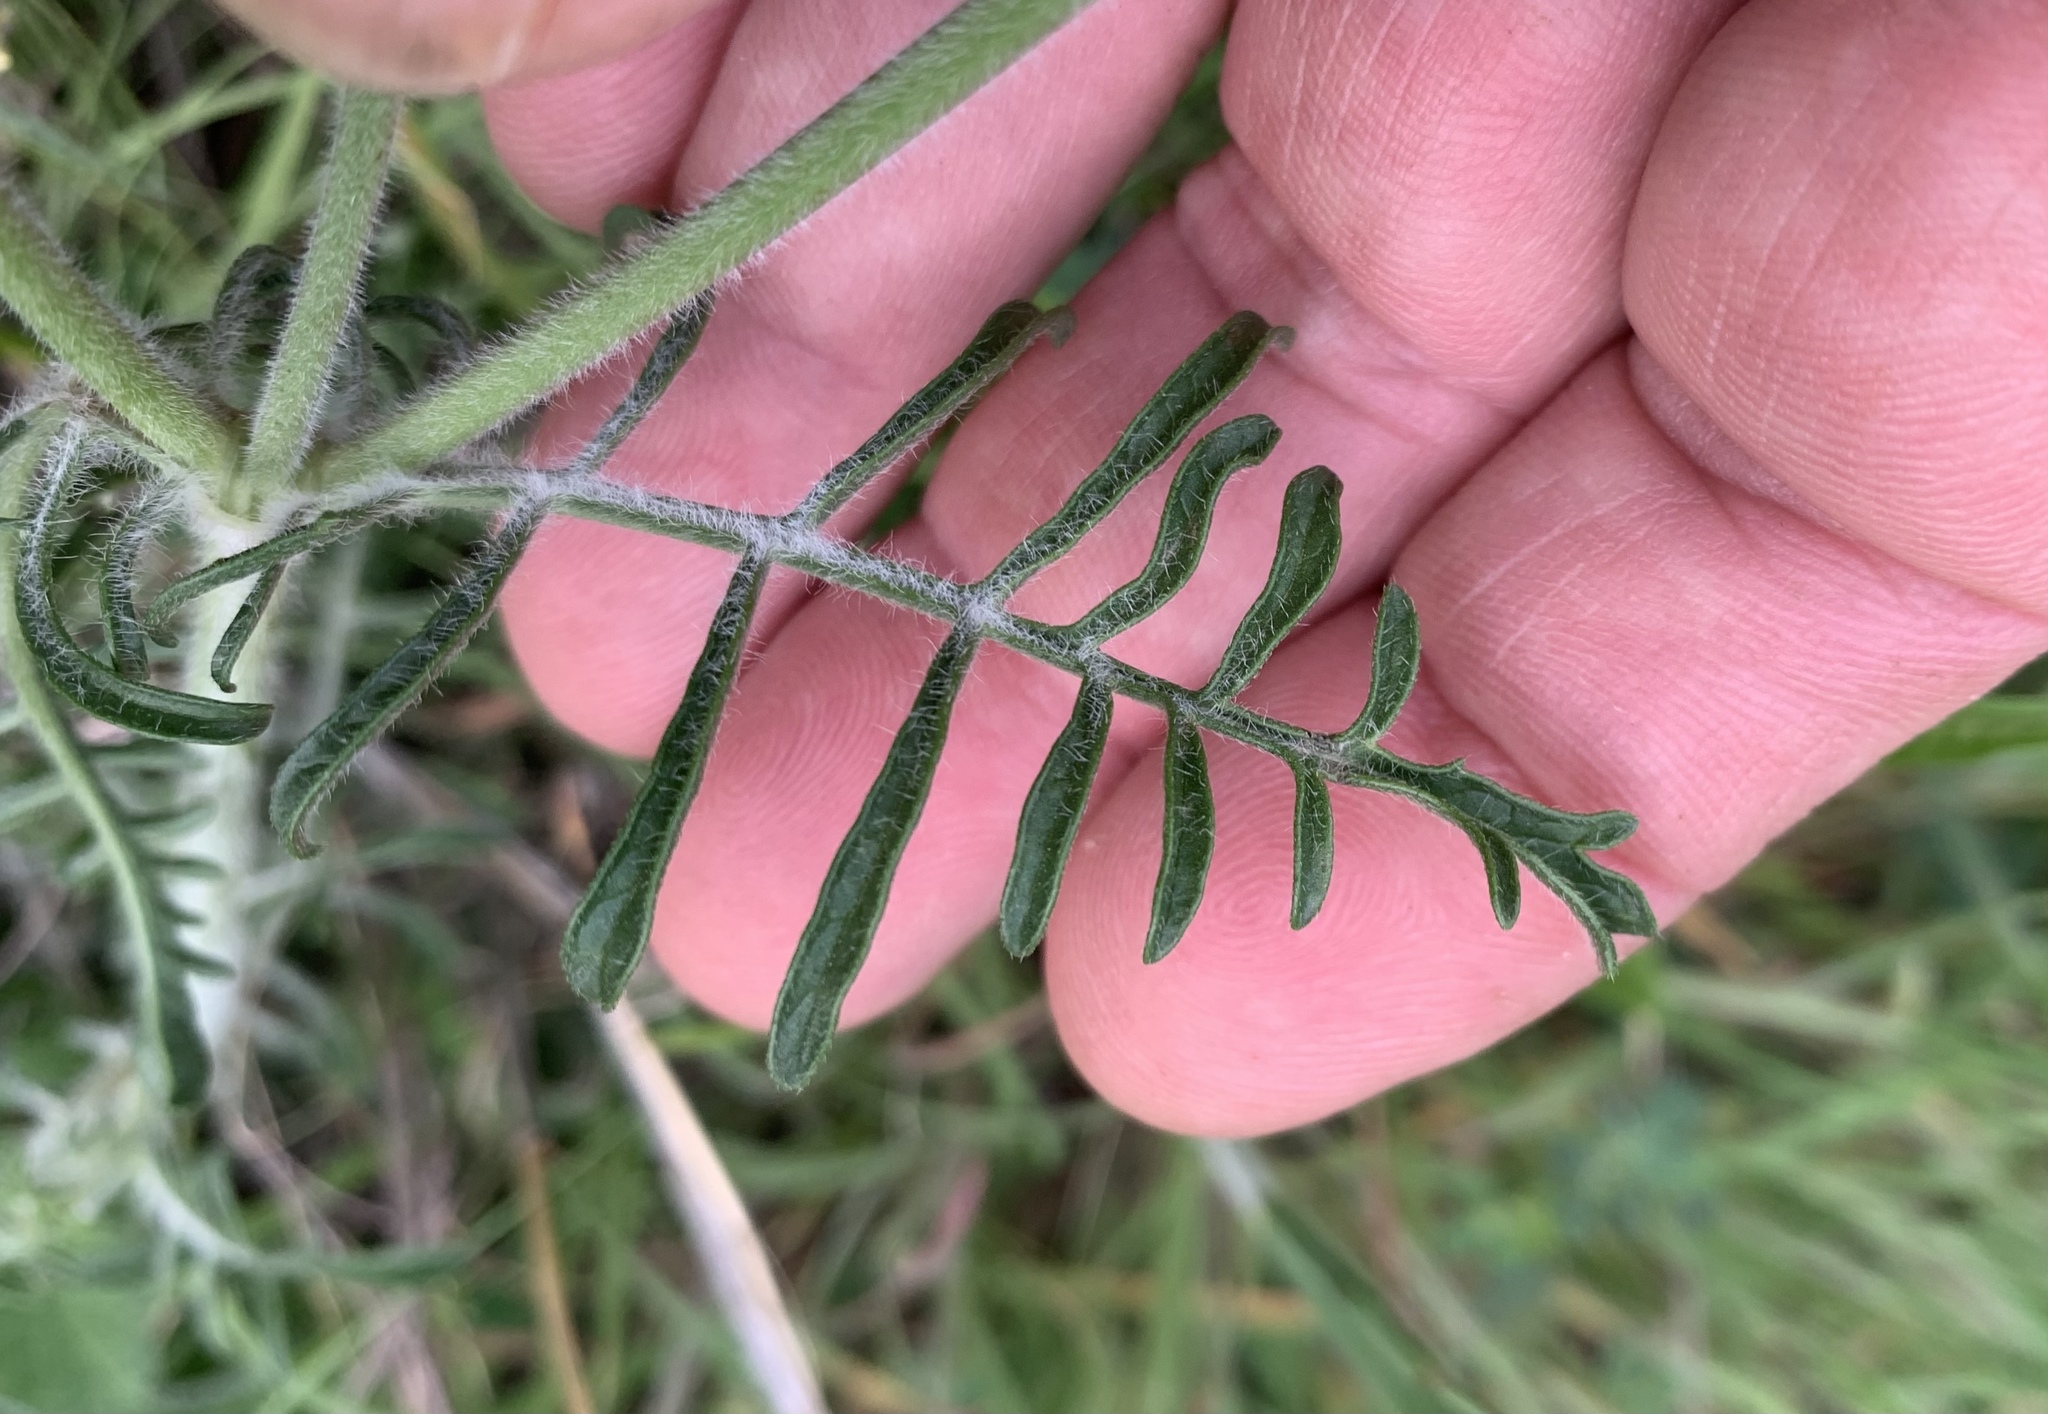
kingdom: Plantae
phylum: Tracheophyta
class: Magnoliopsida
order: Dipsacales
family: Caprifoliaceae
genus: Sixalix
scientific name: Sixalix atropurpurea
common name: Sweet scabious
